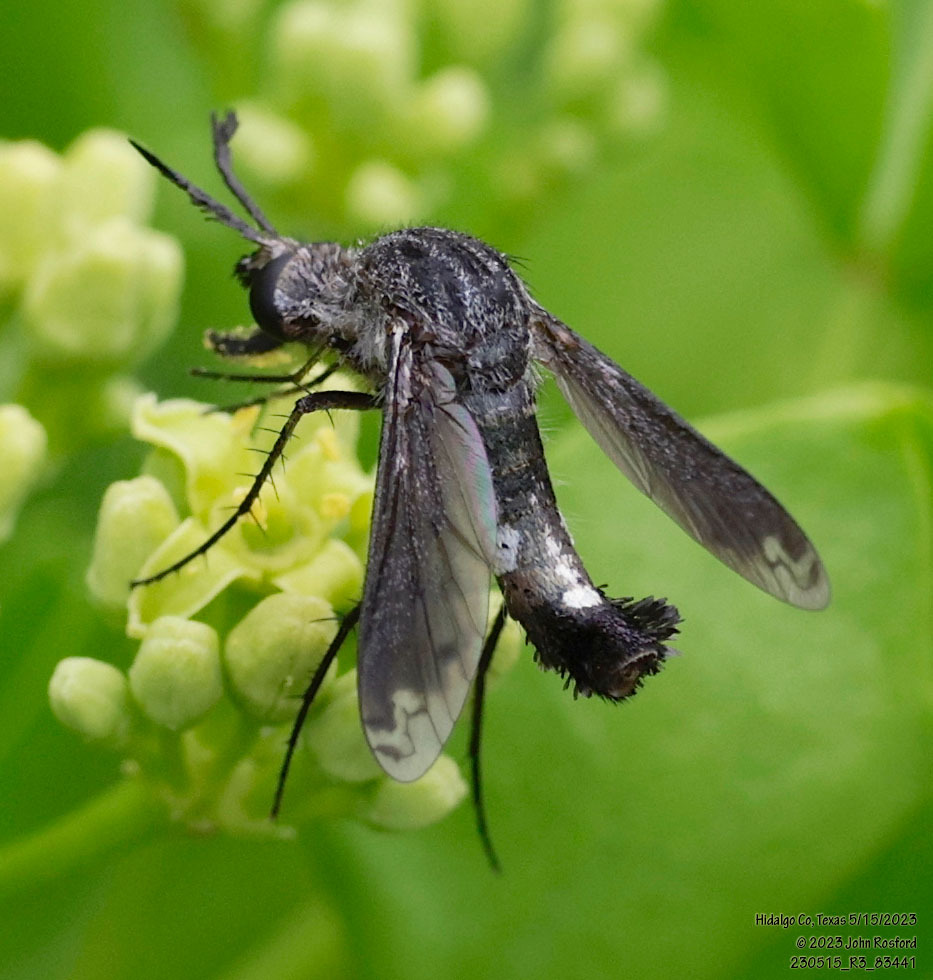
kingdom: Animalia
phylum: Arthropoda
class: Insecta
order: Diptera
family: Bombyliidae
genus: Lepidophora
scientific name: Lepidophora vetusta
